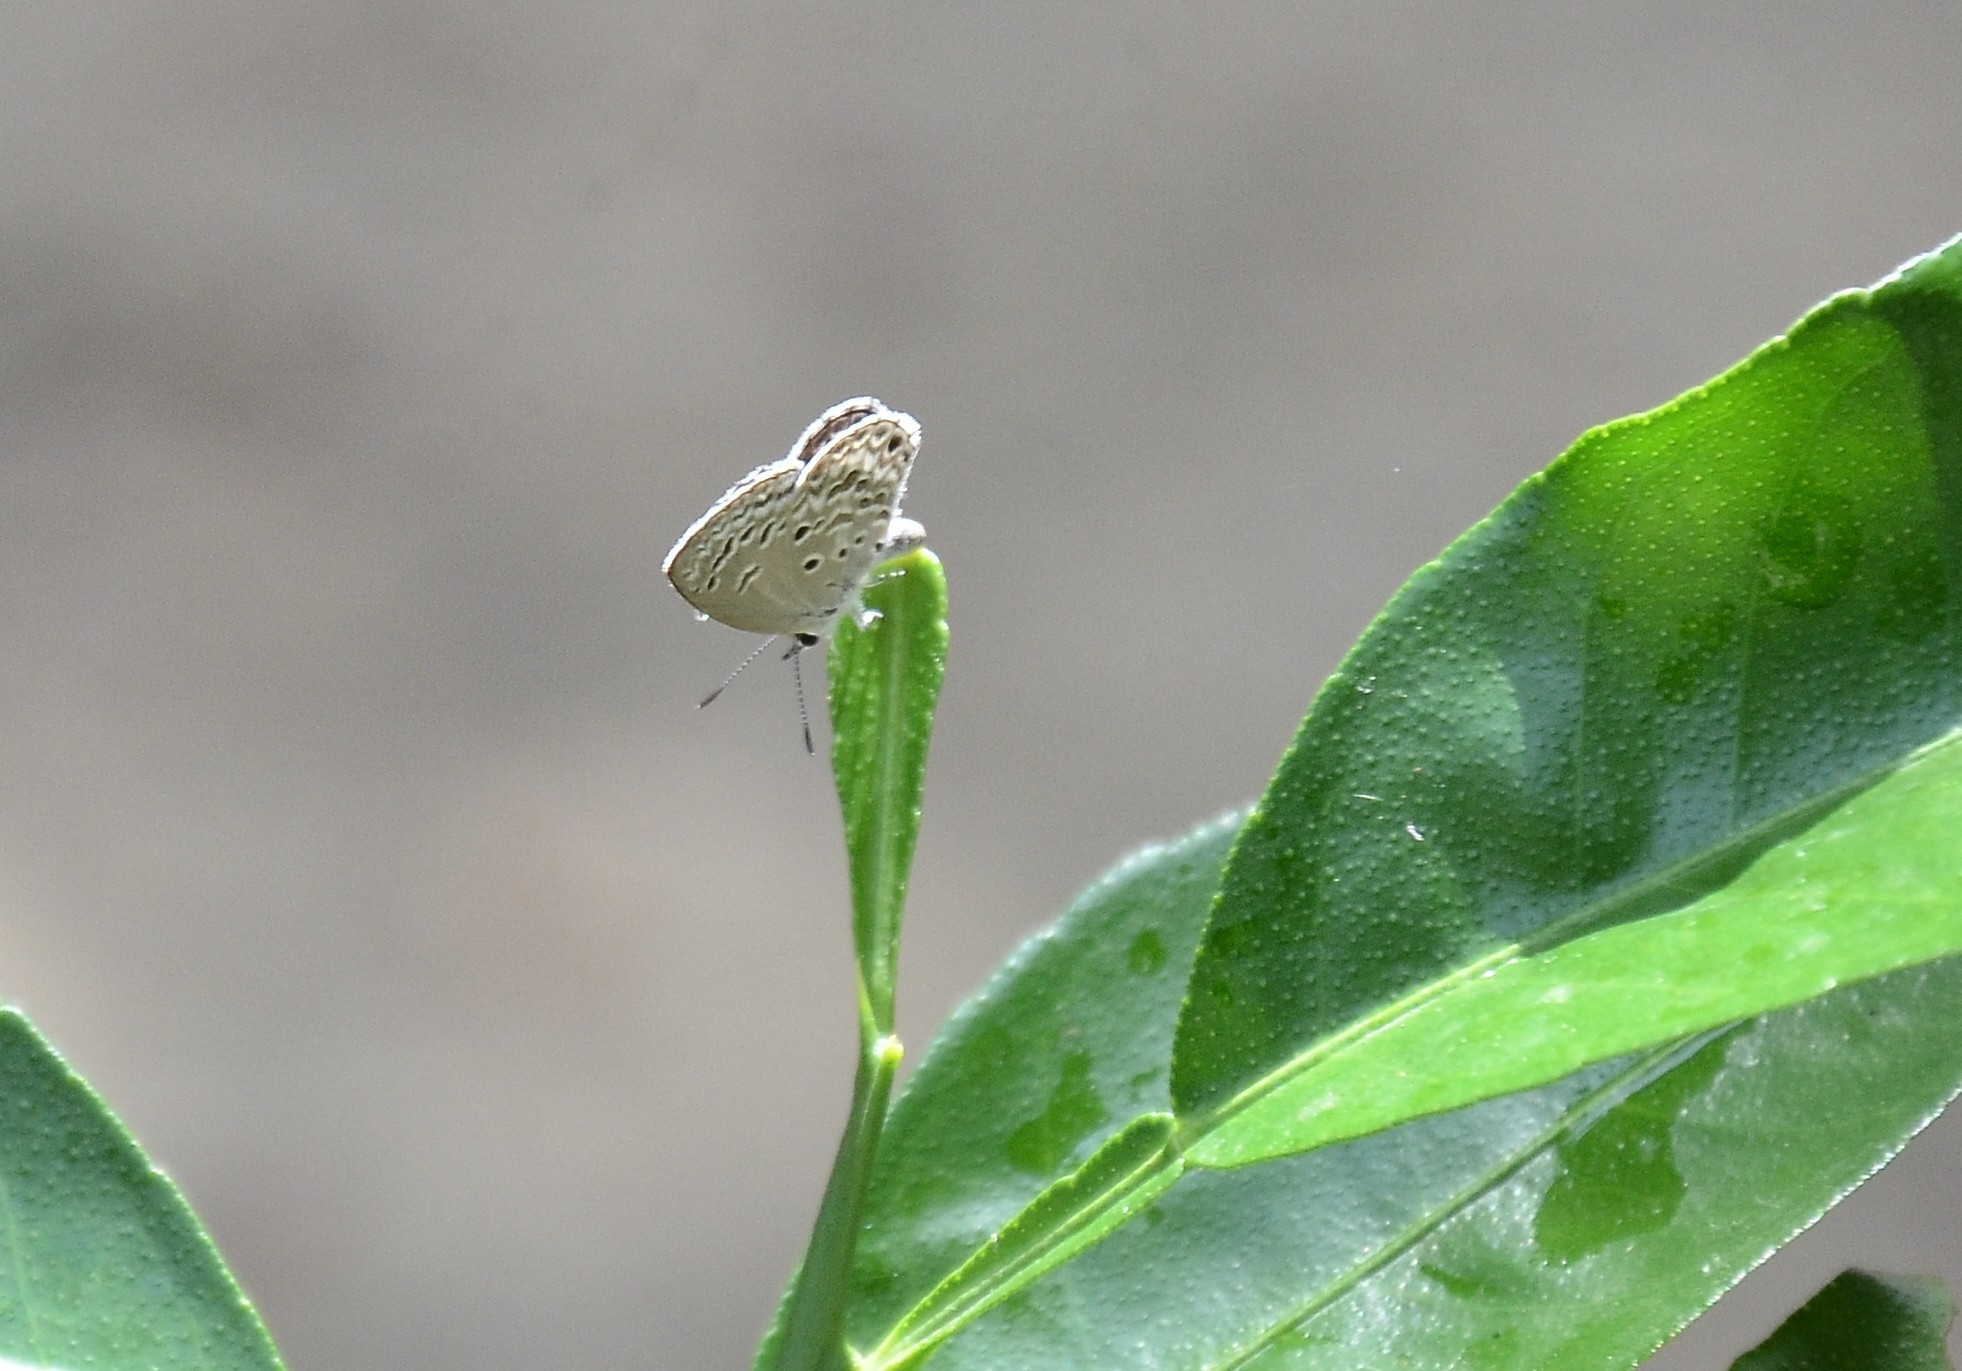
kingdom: Animalia
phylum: Arthropoda
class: Insecta
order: Lepidoptera
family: Lycaenidae
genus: Chilades
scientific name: Chilades laius
